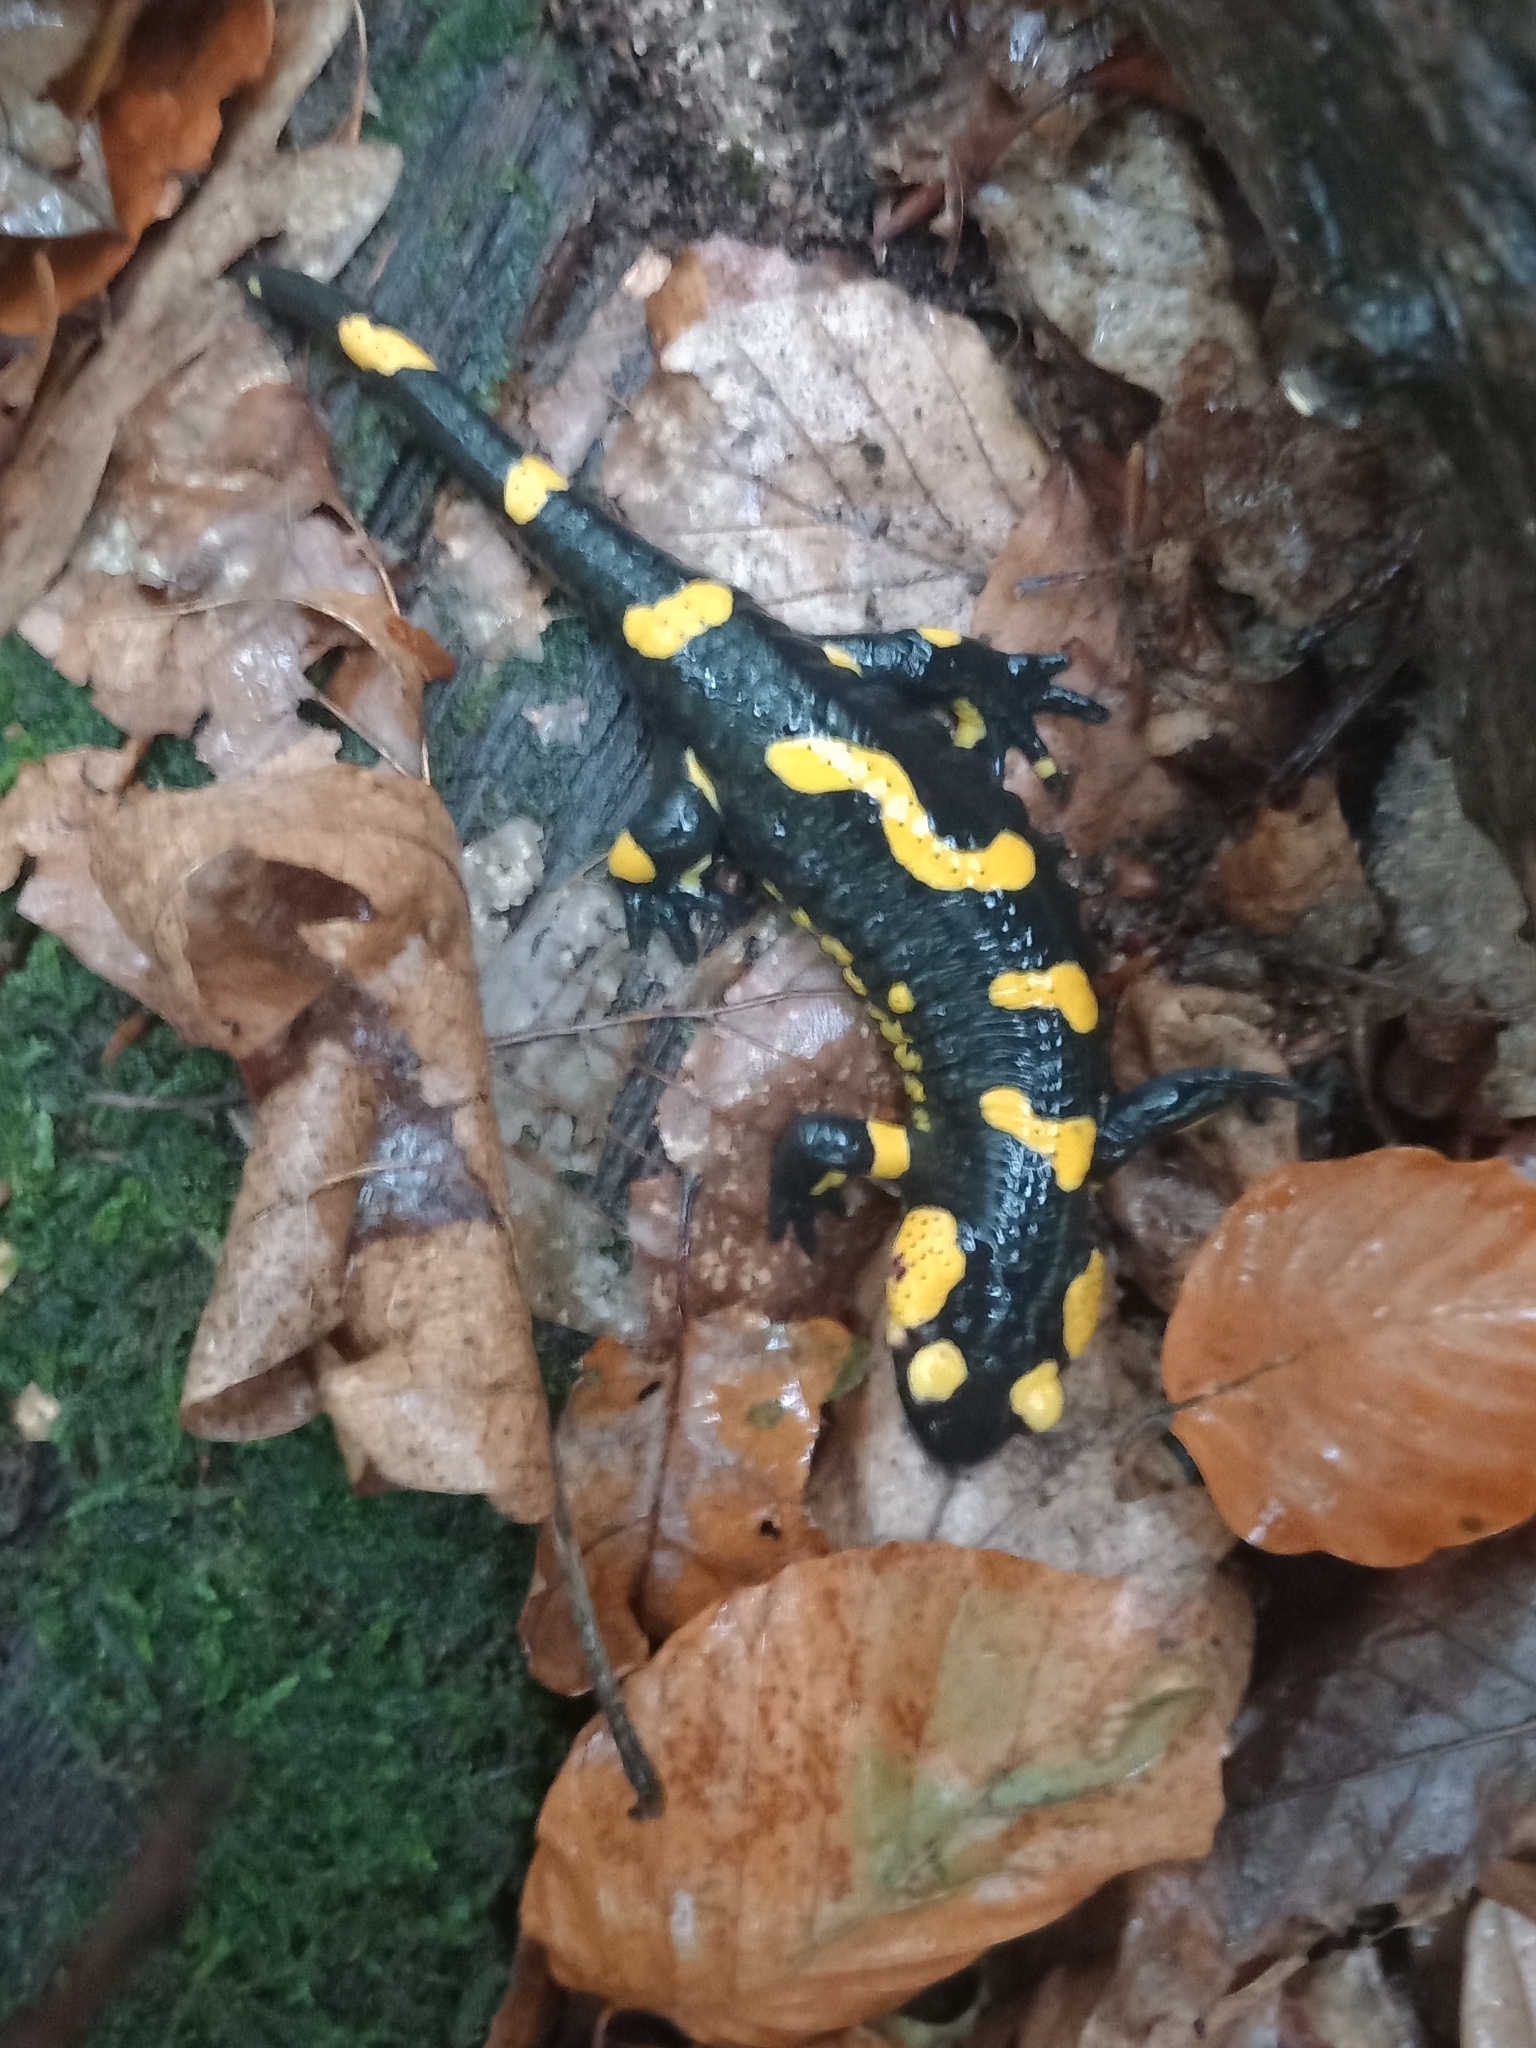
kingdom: Animalia
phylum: Chordata
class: Amphibia
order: Caudata
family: Salamandridae
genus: Salamandra
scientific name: Salamandra salamandra
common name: Fire salamander
